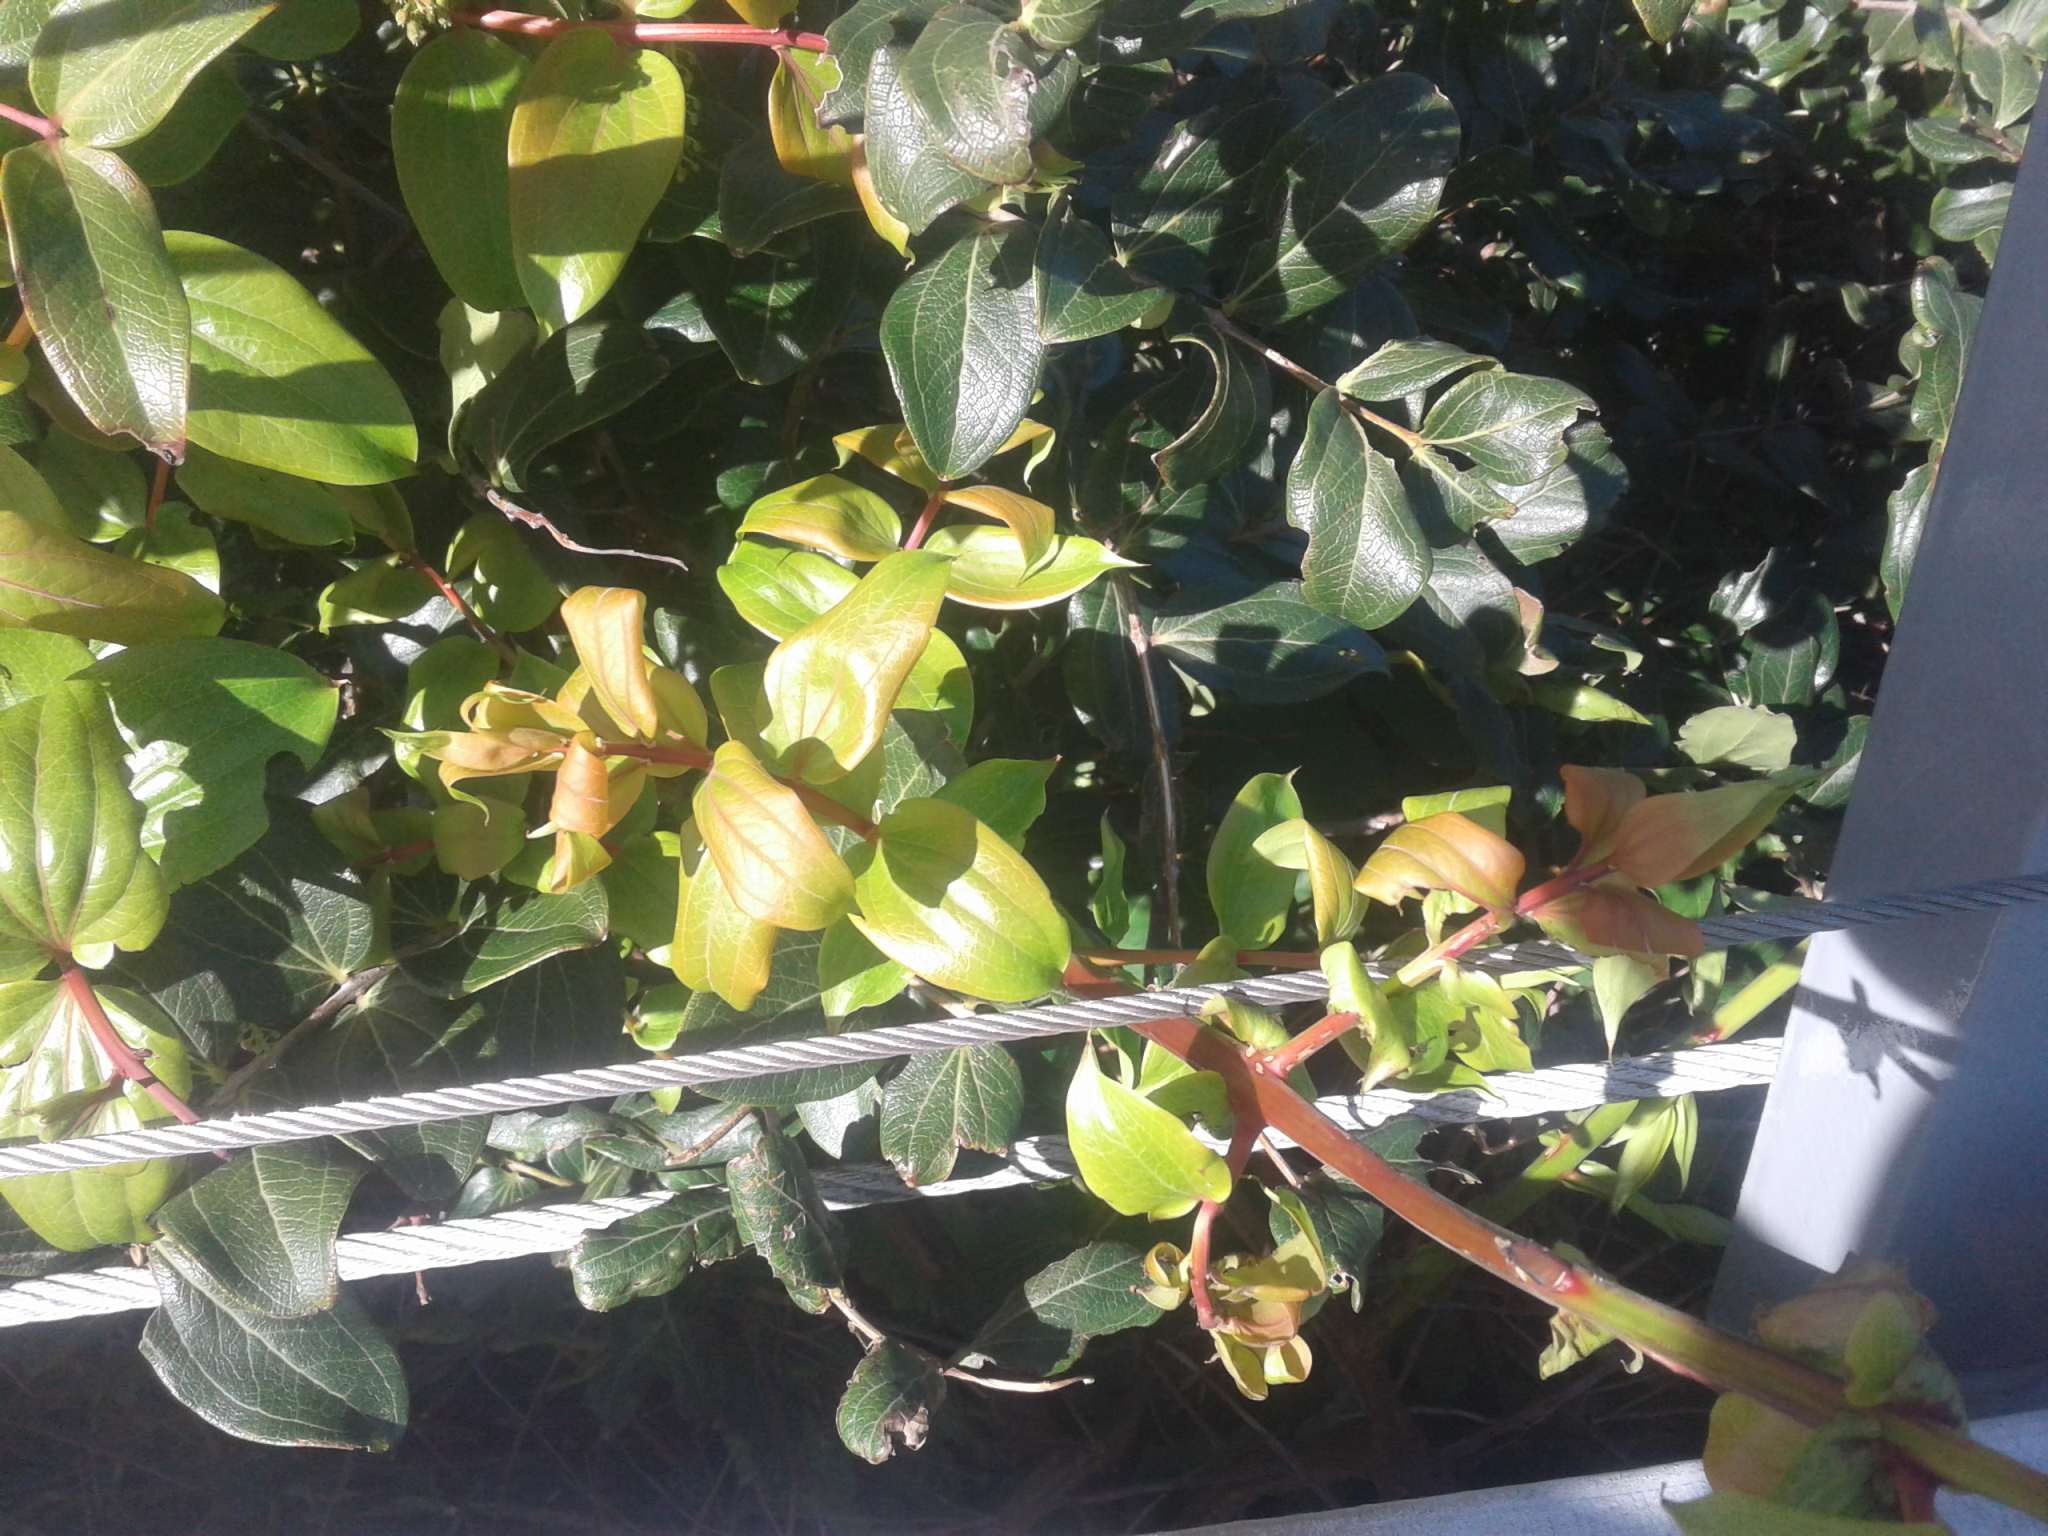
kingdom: Plantae
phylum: Tracheophyta
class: Magnoliopsida
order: Cucurbitales
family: Coriariaceae
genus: Coriaria
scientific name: Coriaria arborea
